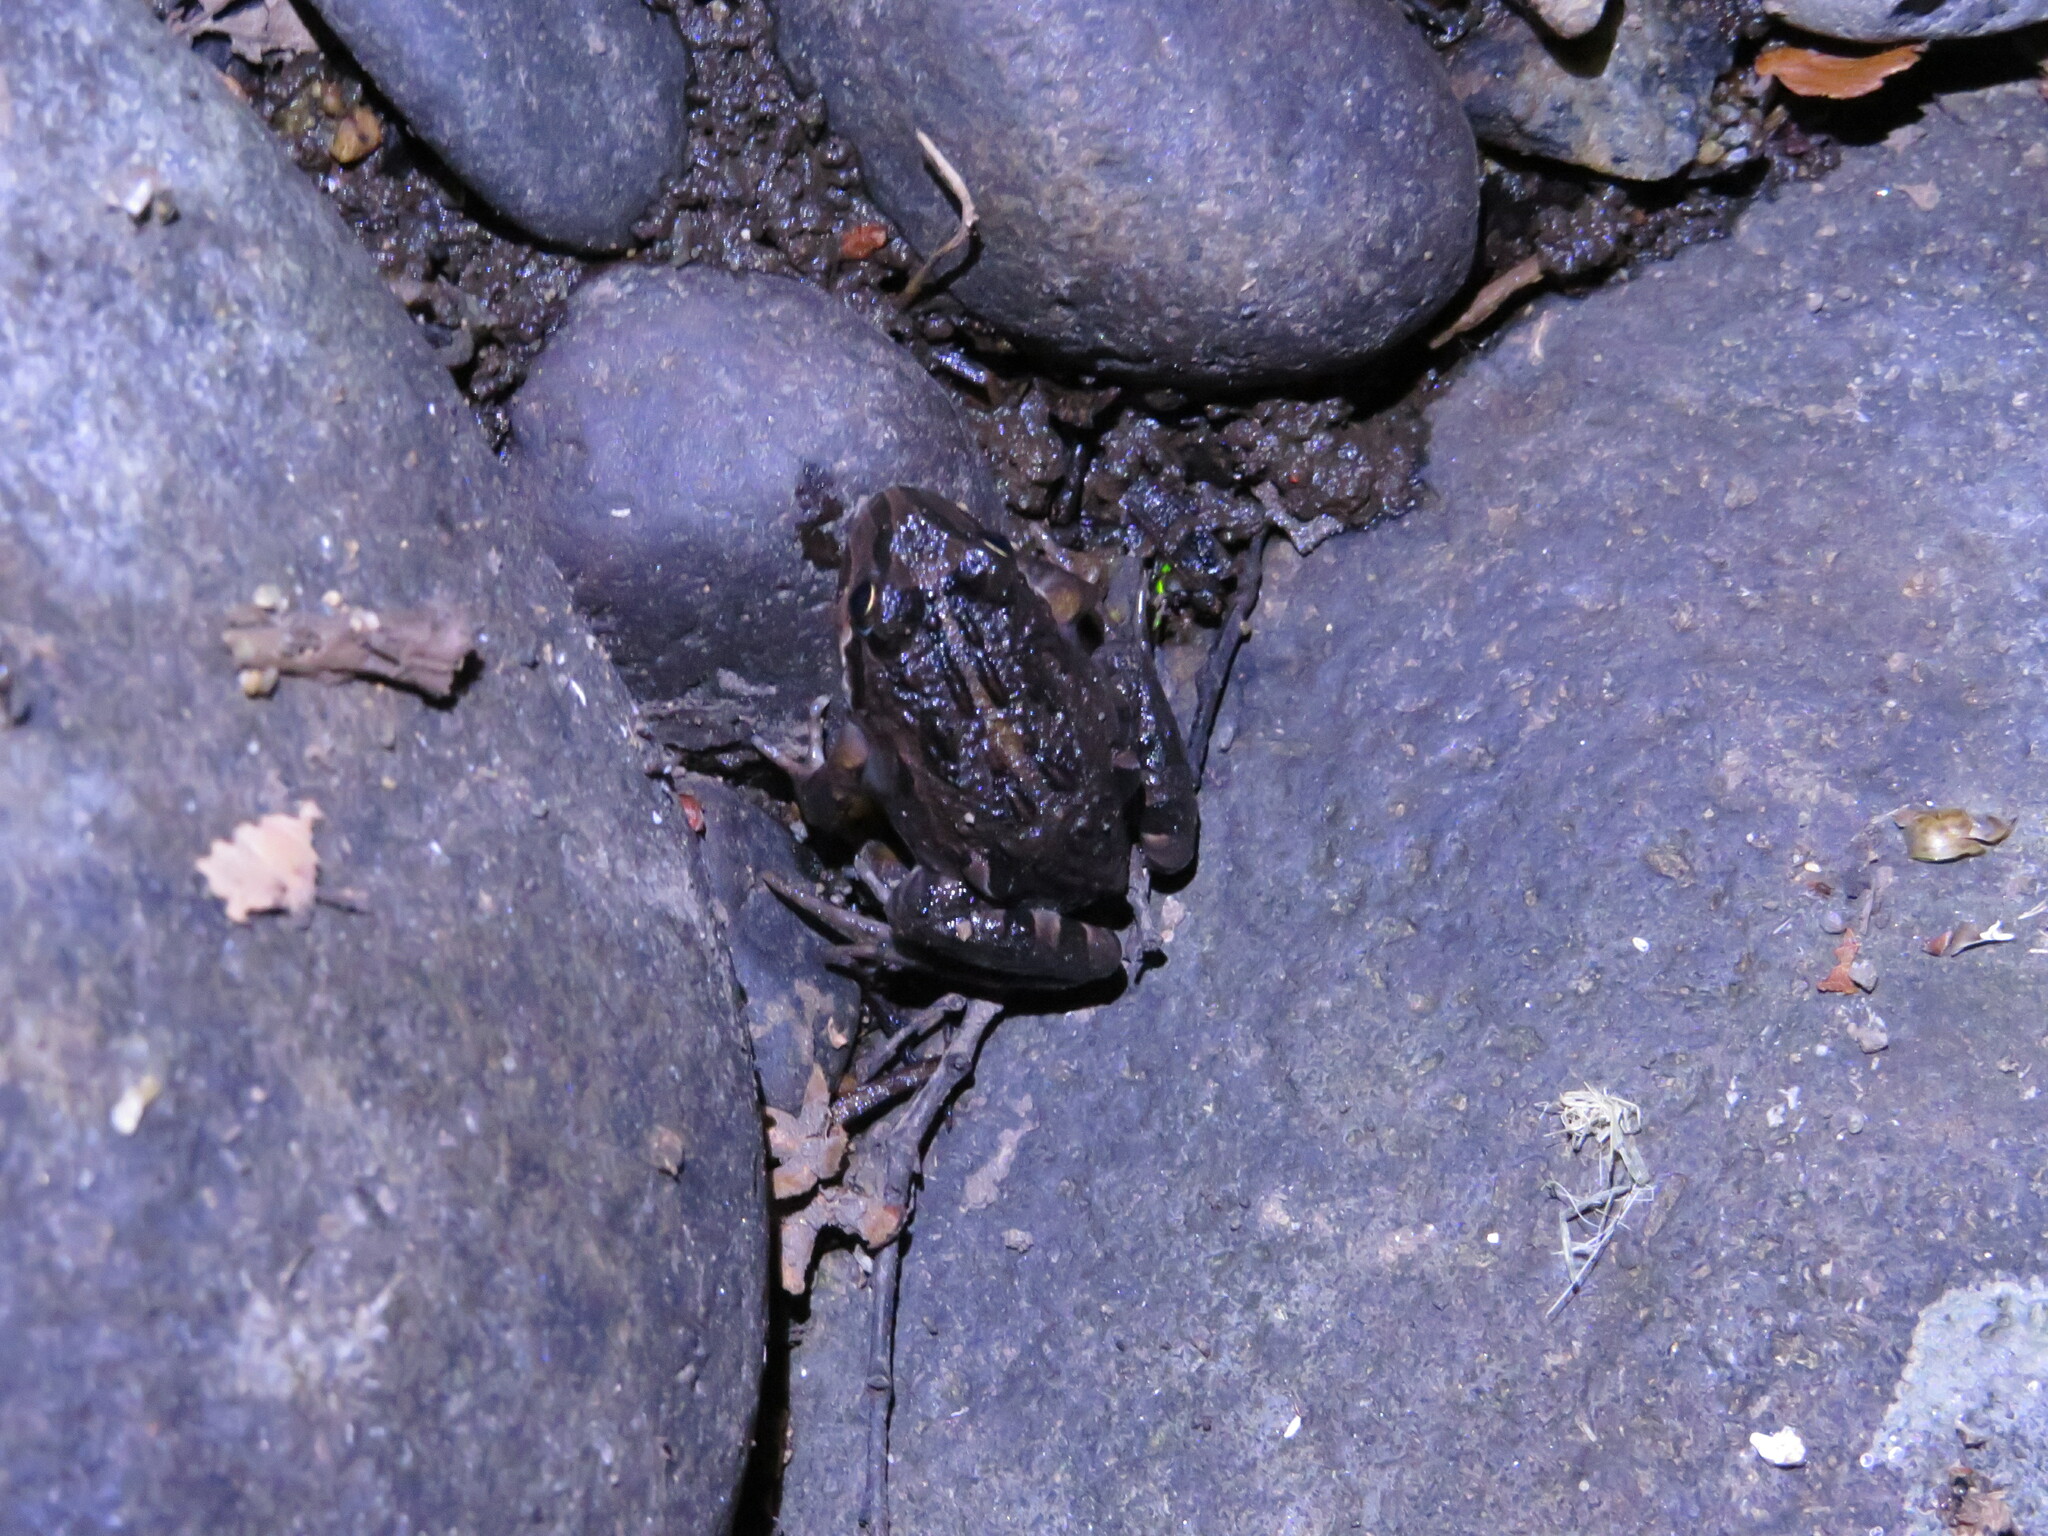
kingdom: Animalia
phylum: Chordata
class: Amphibia
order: Anura
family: Leptodactylidae
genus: Pleurodema
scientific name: Pleurodema thaul
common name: Chile four-eyed frog
